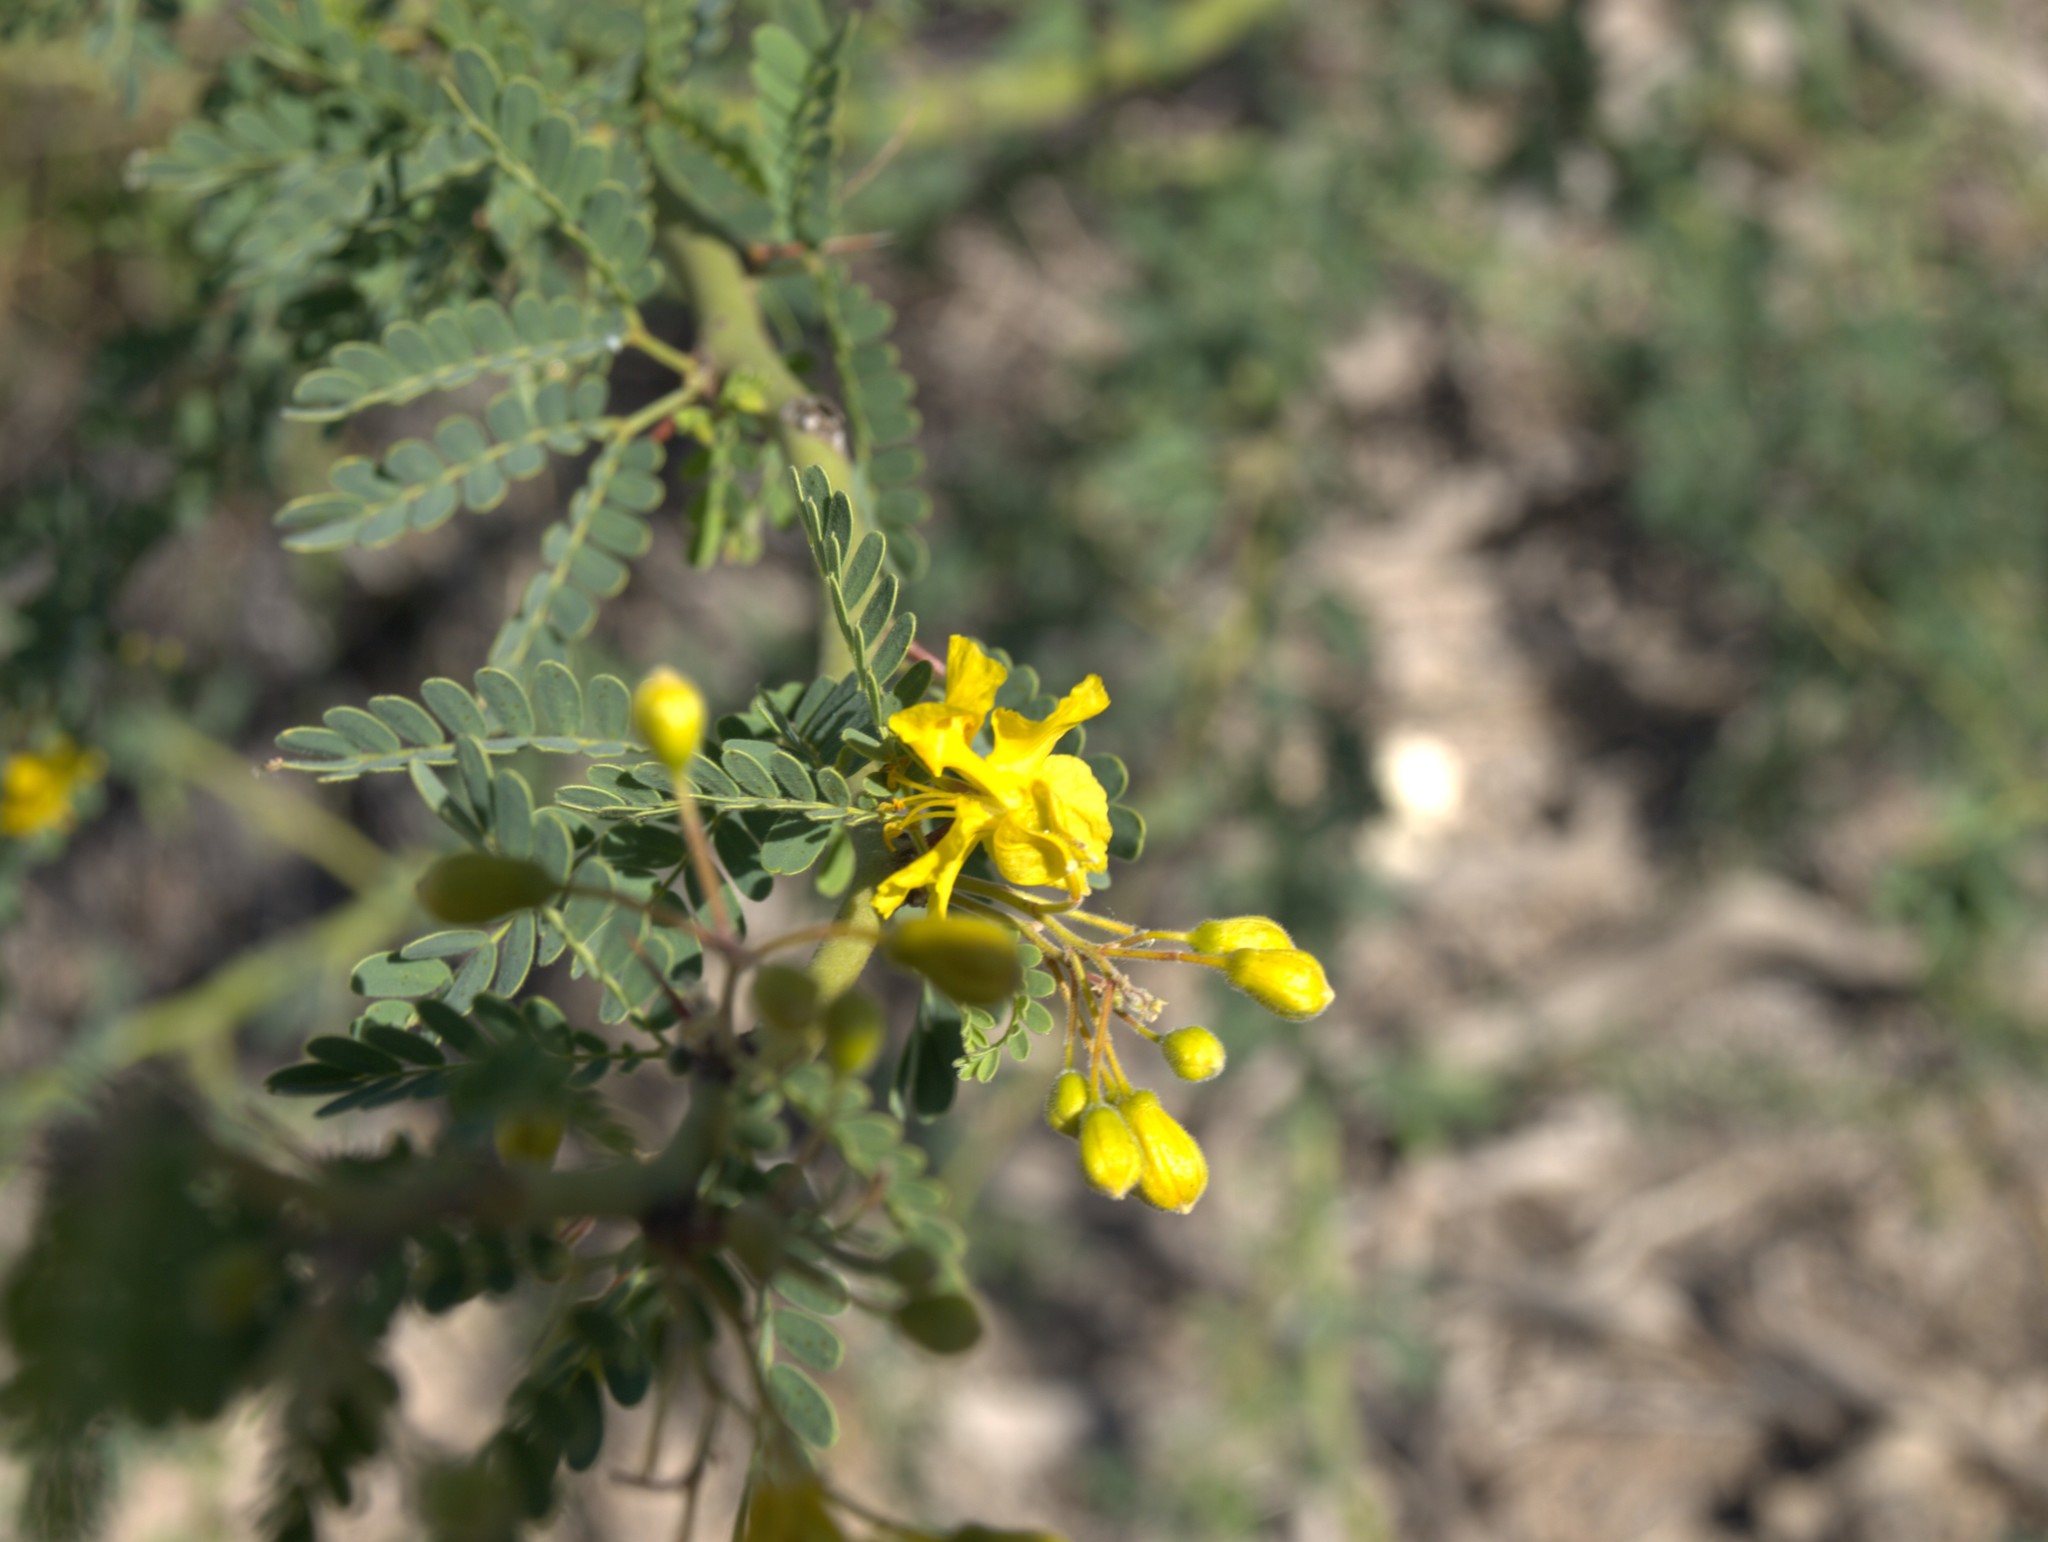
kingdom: Plantae
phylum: Tracheophyta
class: Magnoliopsida
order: Fabales
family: Fabaceae
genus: Parkinsonia
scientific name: Parkinsonia praecox
